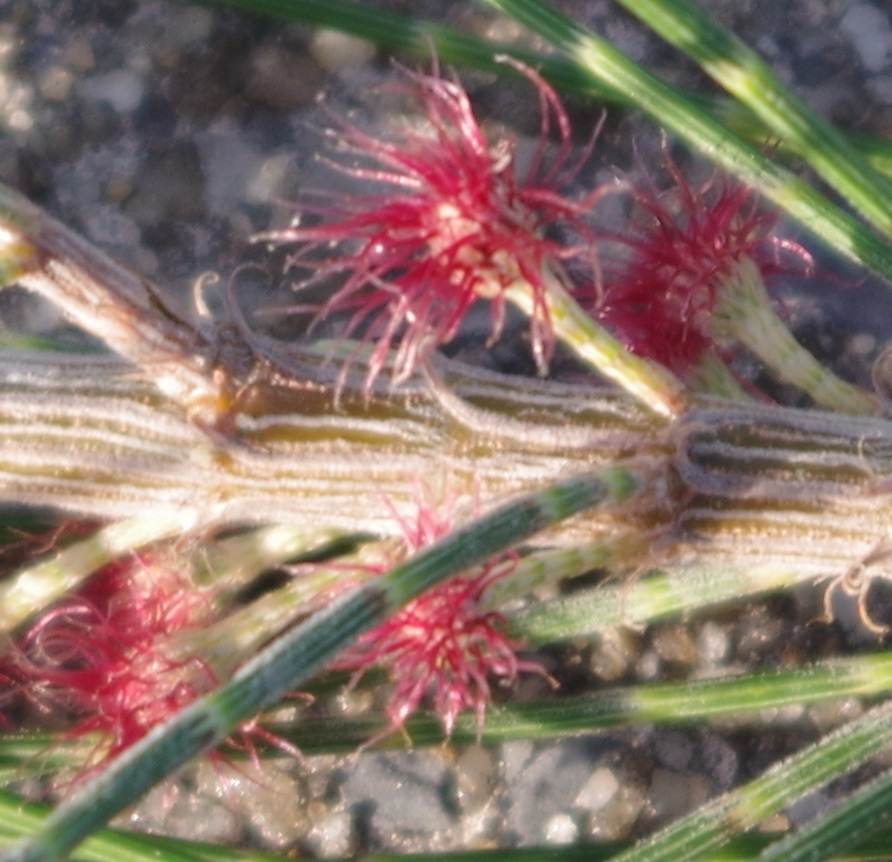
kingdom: Plantae
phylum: Tracheophyta
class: Magnoliopsida
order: Fagales
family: Casuarinaceae
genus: Casuarina
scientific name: Casuarina equisetifolia
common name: Beach sheoak
